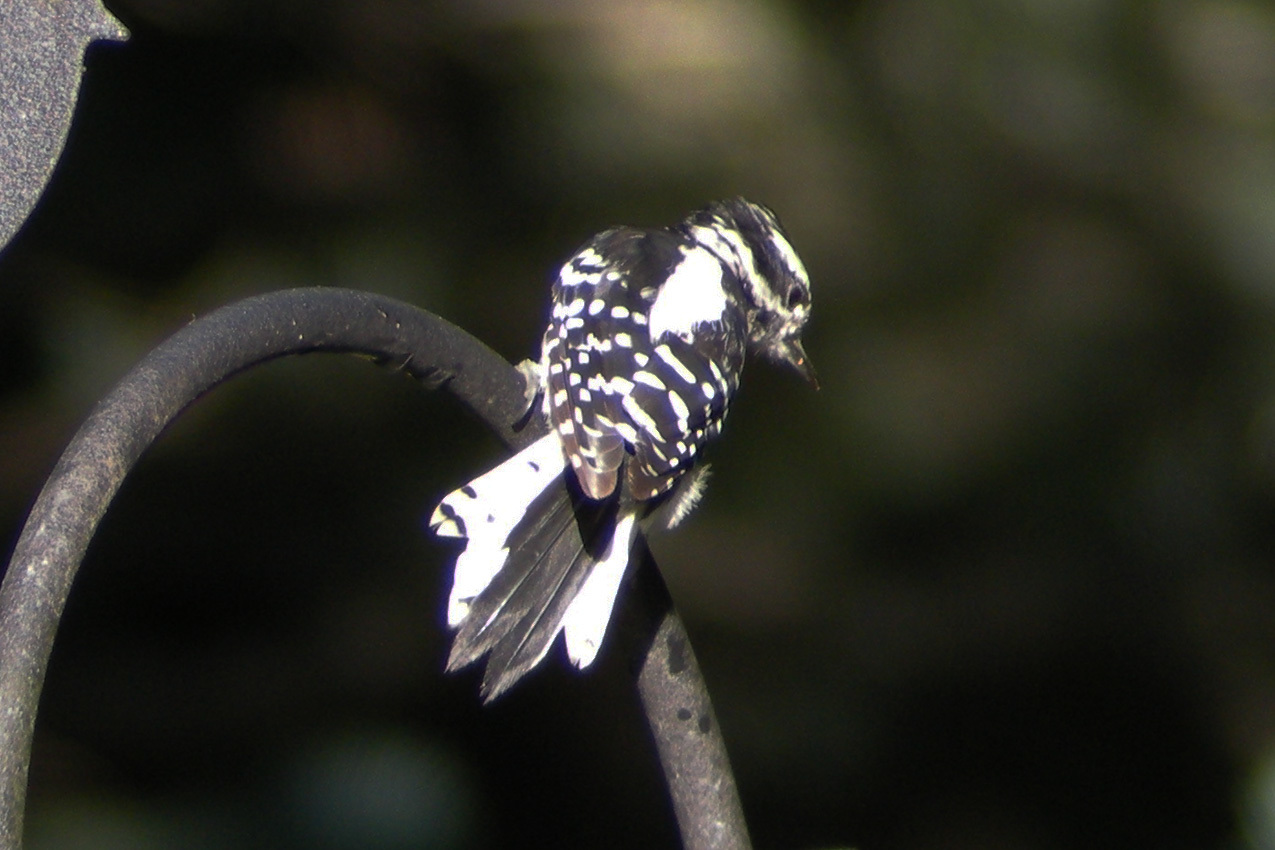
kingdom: Animalia
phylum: Chordata
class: Aves
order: Piciformes
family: Picidae
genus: Dryobates
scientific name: Dryobates pubescens
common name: Downy woodpecker
